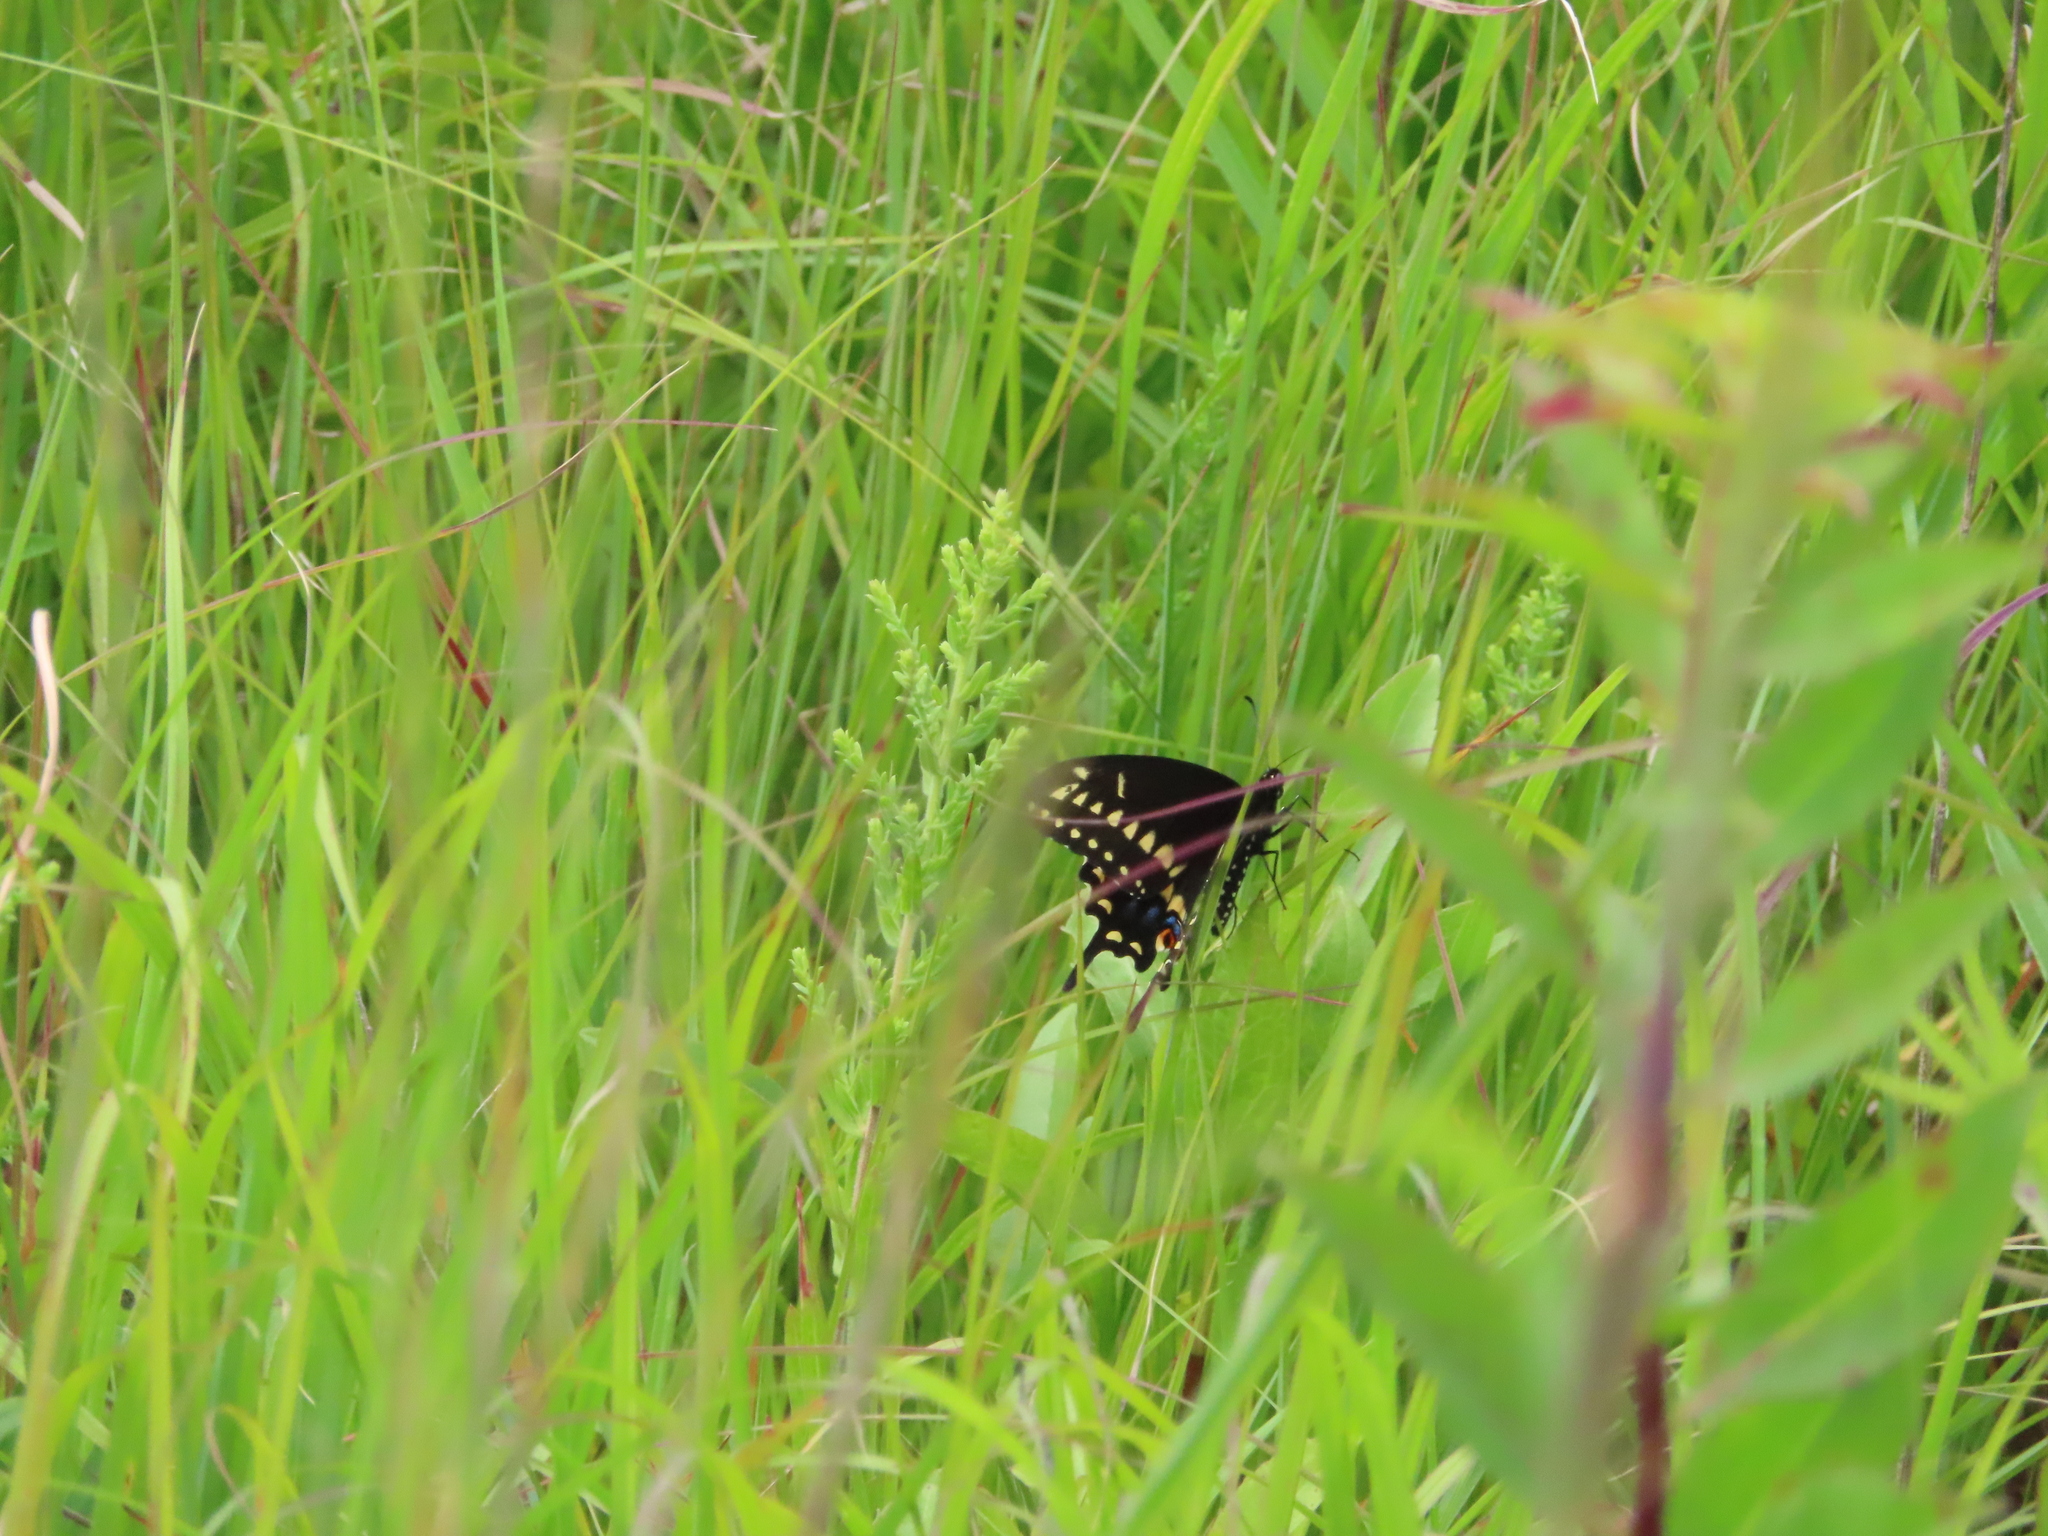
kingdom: Animalia
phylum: Arthropoda
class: Insecta
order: Lepidoptera
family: Papilionidae
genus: Papilio
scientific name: Papilio polyxenes
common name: Black swallowtail
